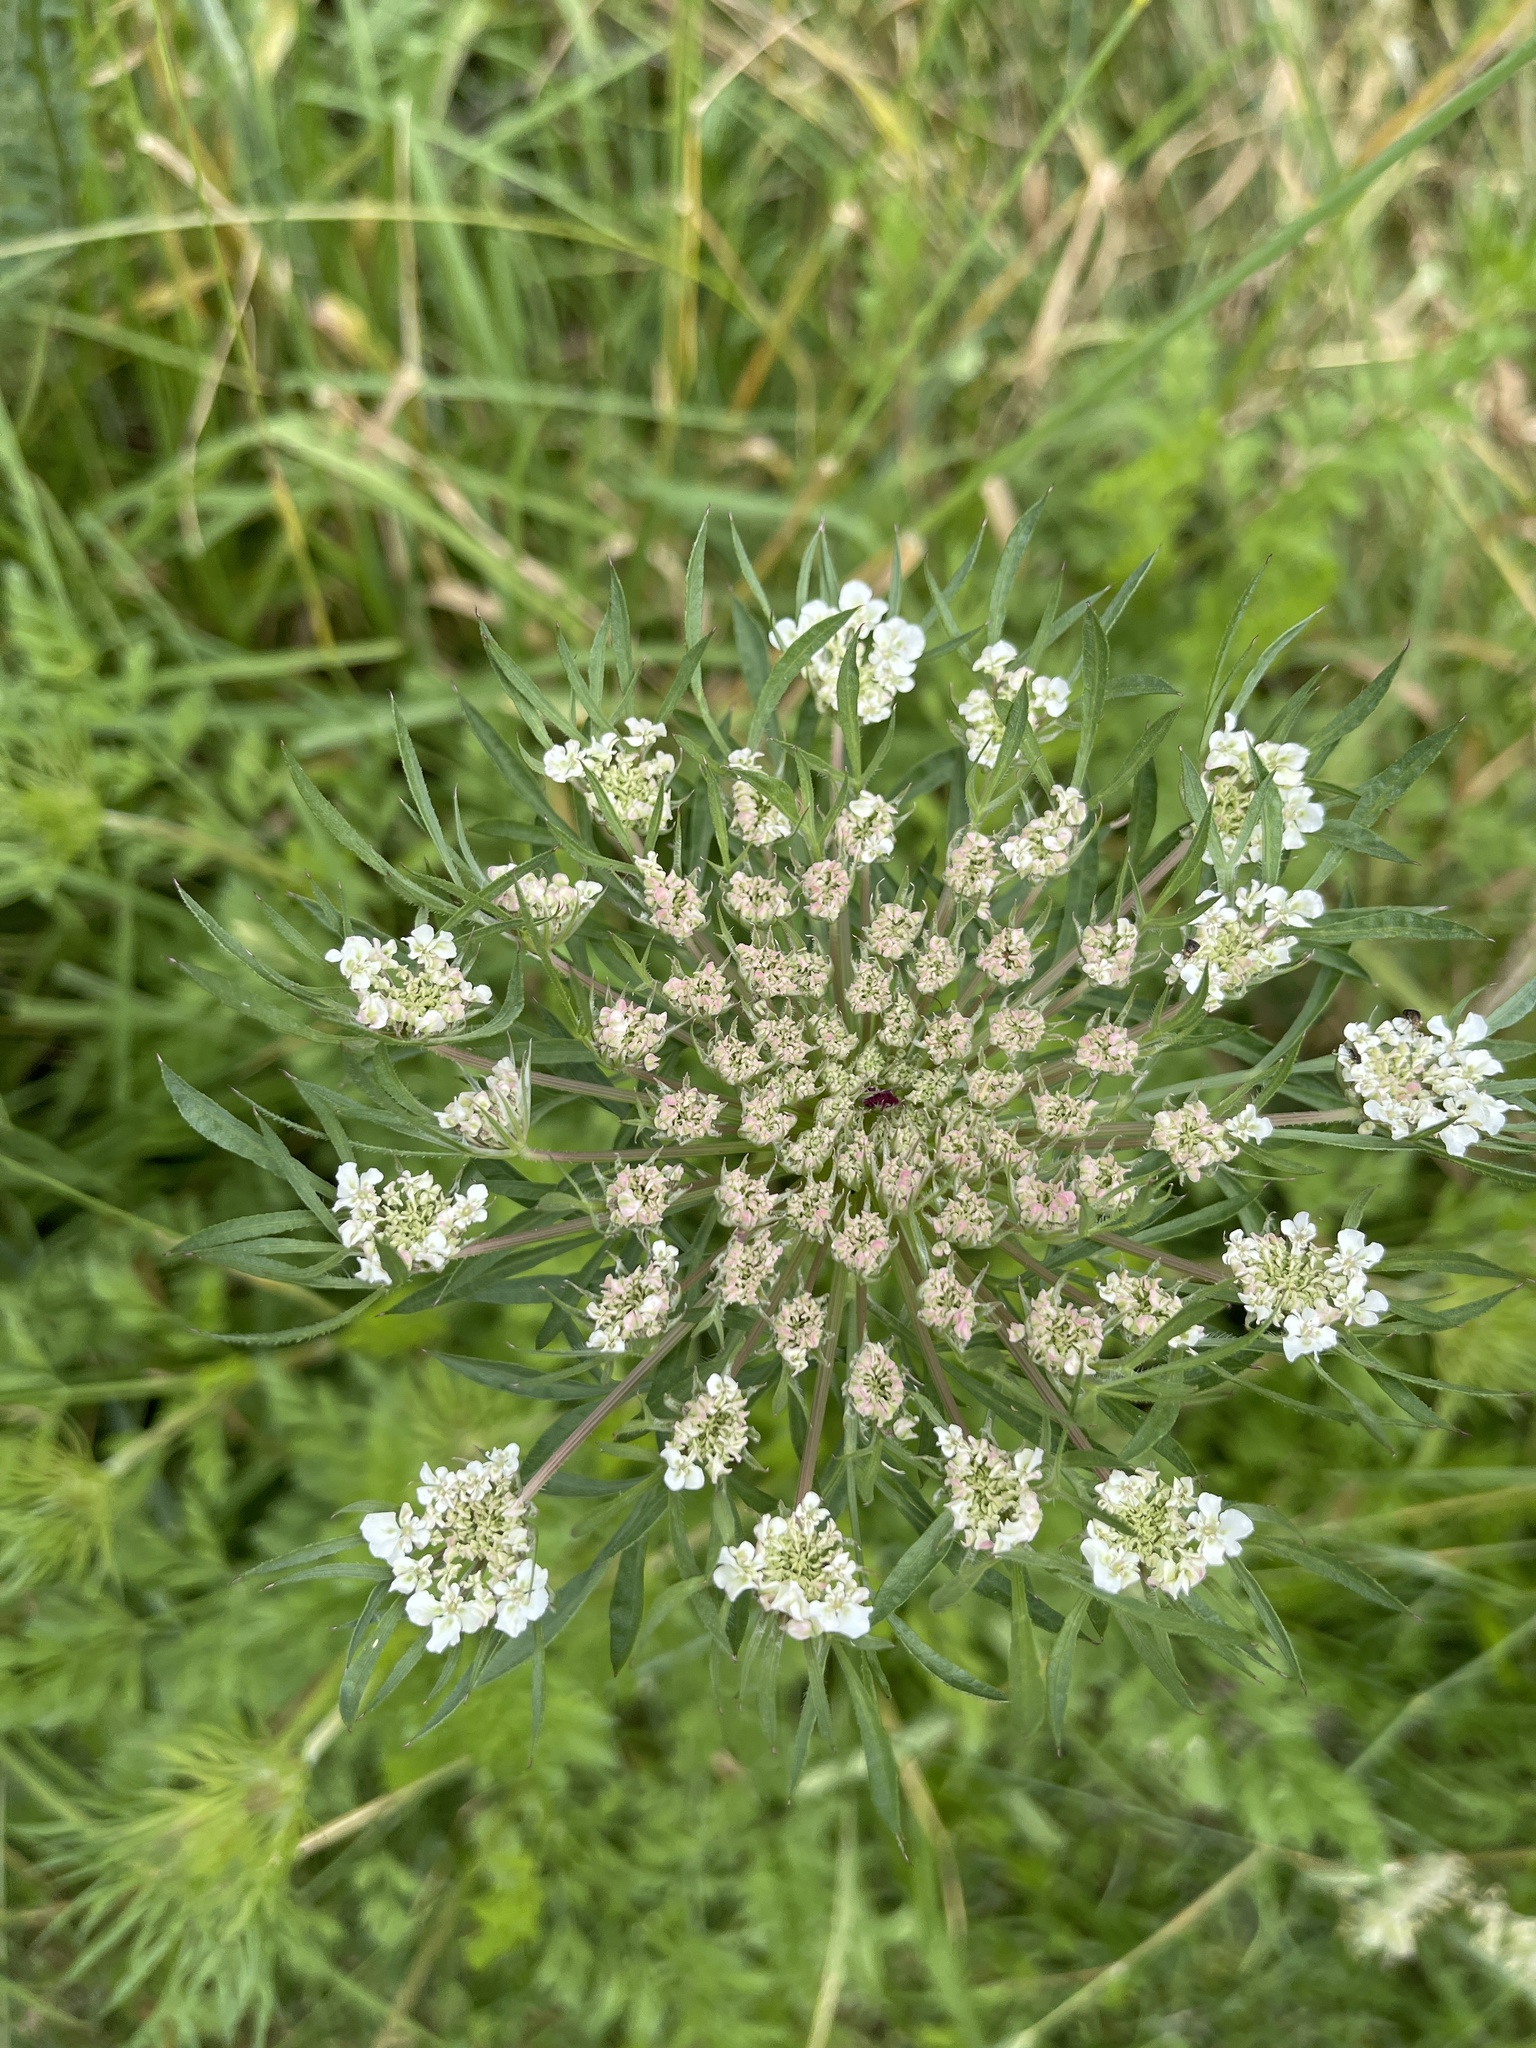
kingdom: Plantae
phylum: Tracheophyta
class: Magnoliopsida
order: Apiales
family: Apiaceae
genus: Daucus
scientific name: Daucus carota
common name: Wild carrot
